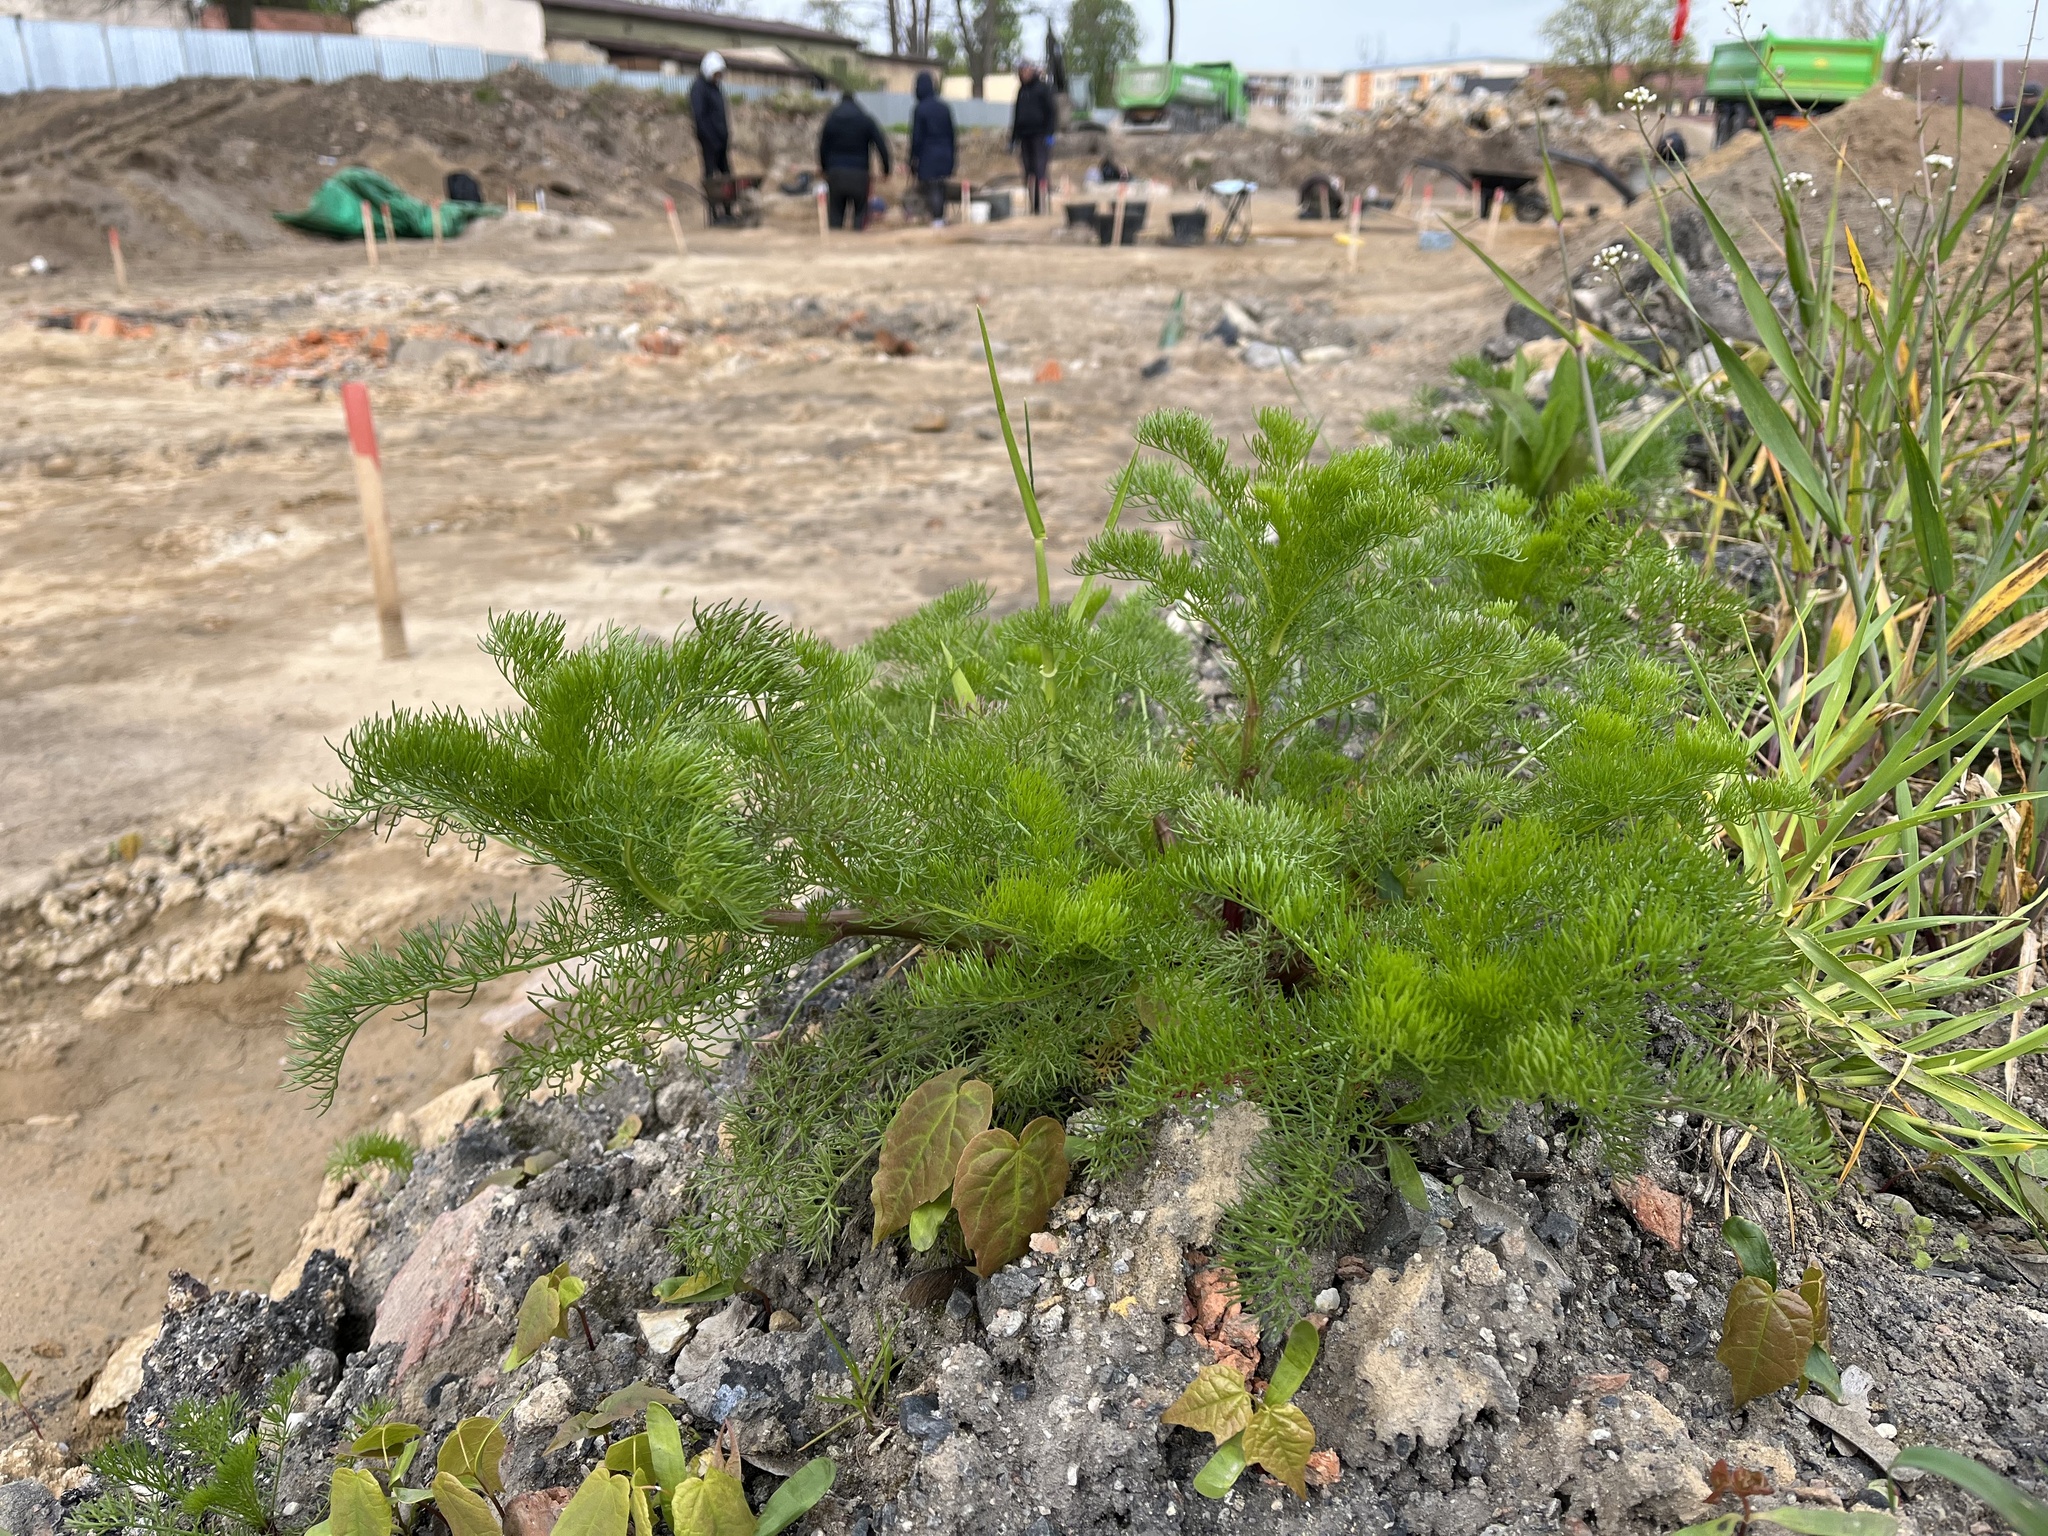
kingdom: Plantae
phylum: Tracheophyta
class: Magnoliopsida
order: Asterales
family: Asteraceae
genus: Tripleurospermum
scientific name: Tripleurospermum inodorum
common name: Scentless mayweed
